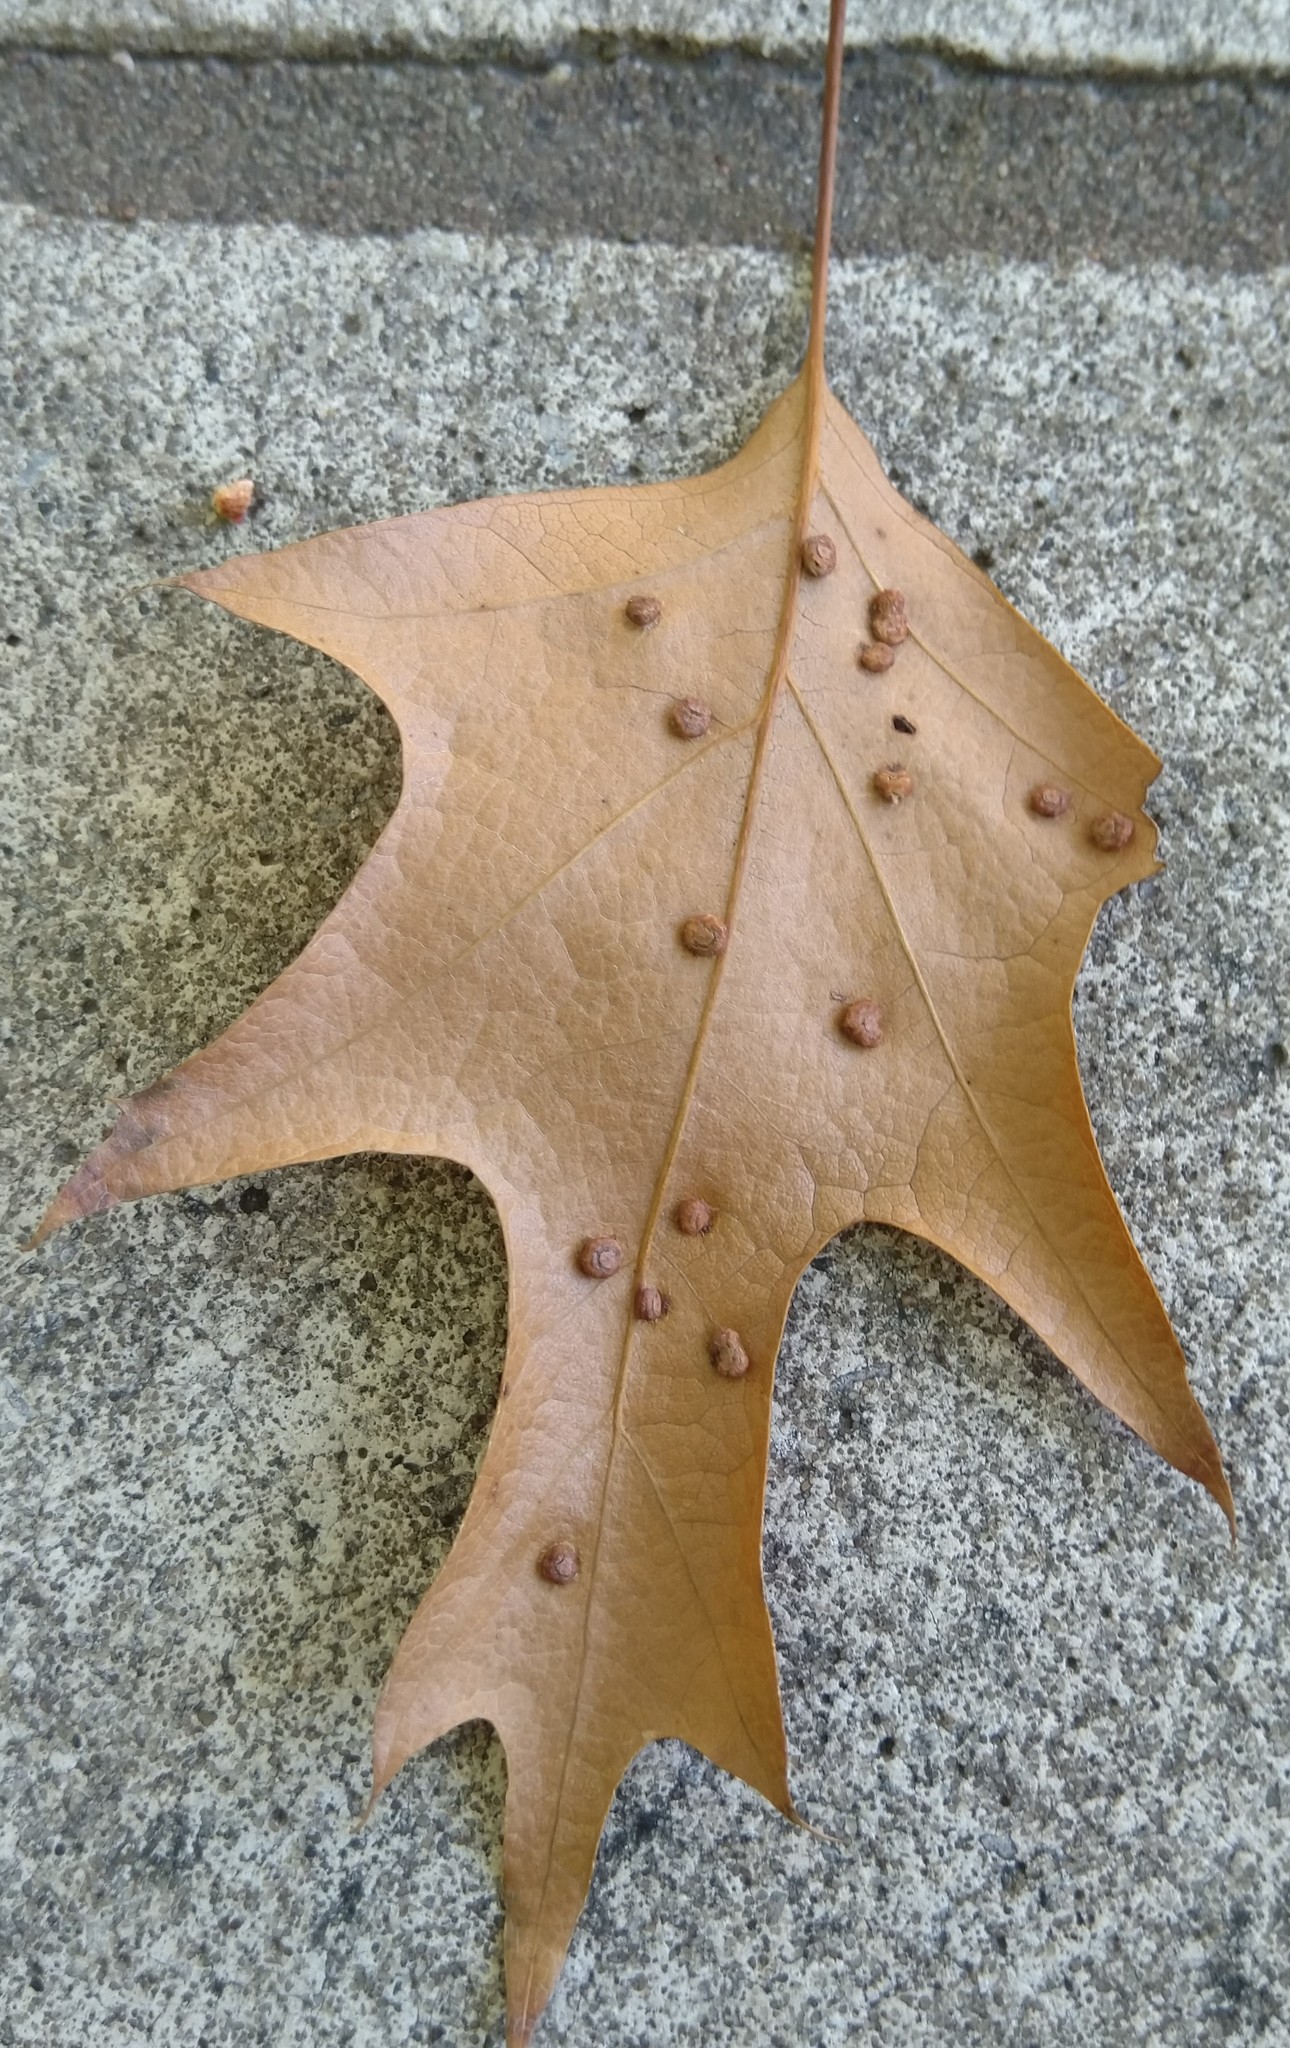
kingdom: Animalia
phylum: Arthropoda
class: Insecta
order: Diptera
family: Cecidomyiidae
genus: Polystepha
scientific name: Polystepha globosa
